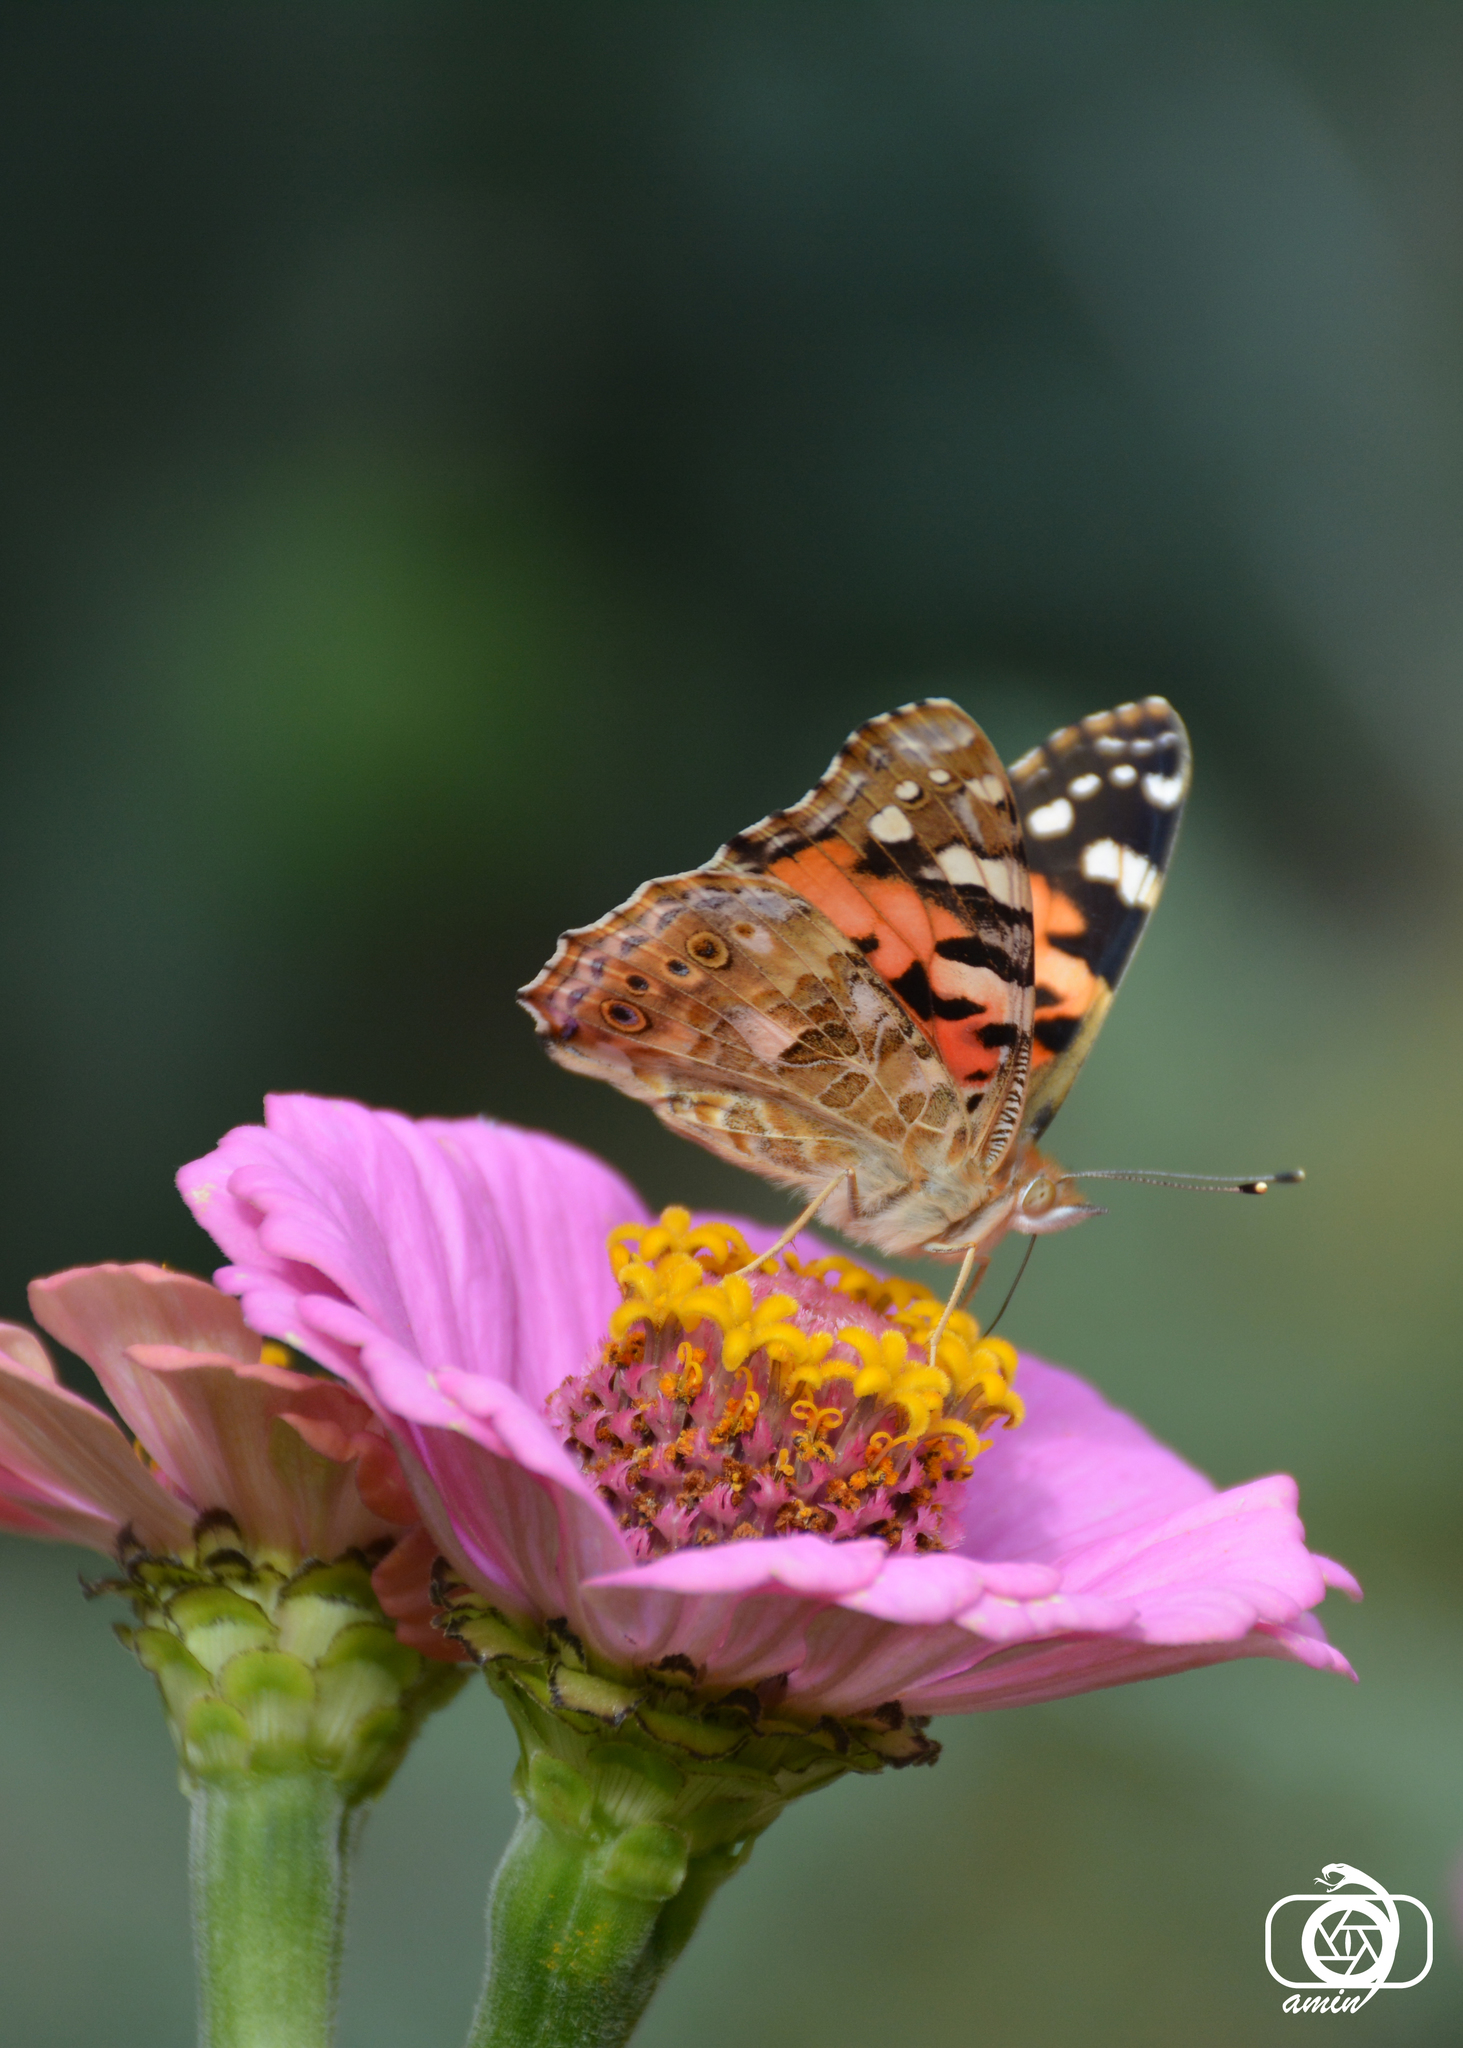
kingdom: Animalia
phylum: Arthropoda
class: Insecta
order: Lepidoptera
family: Nymphalidae
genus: Vanessa
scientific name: Vanessa cardui
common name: Painted lady
